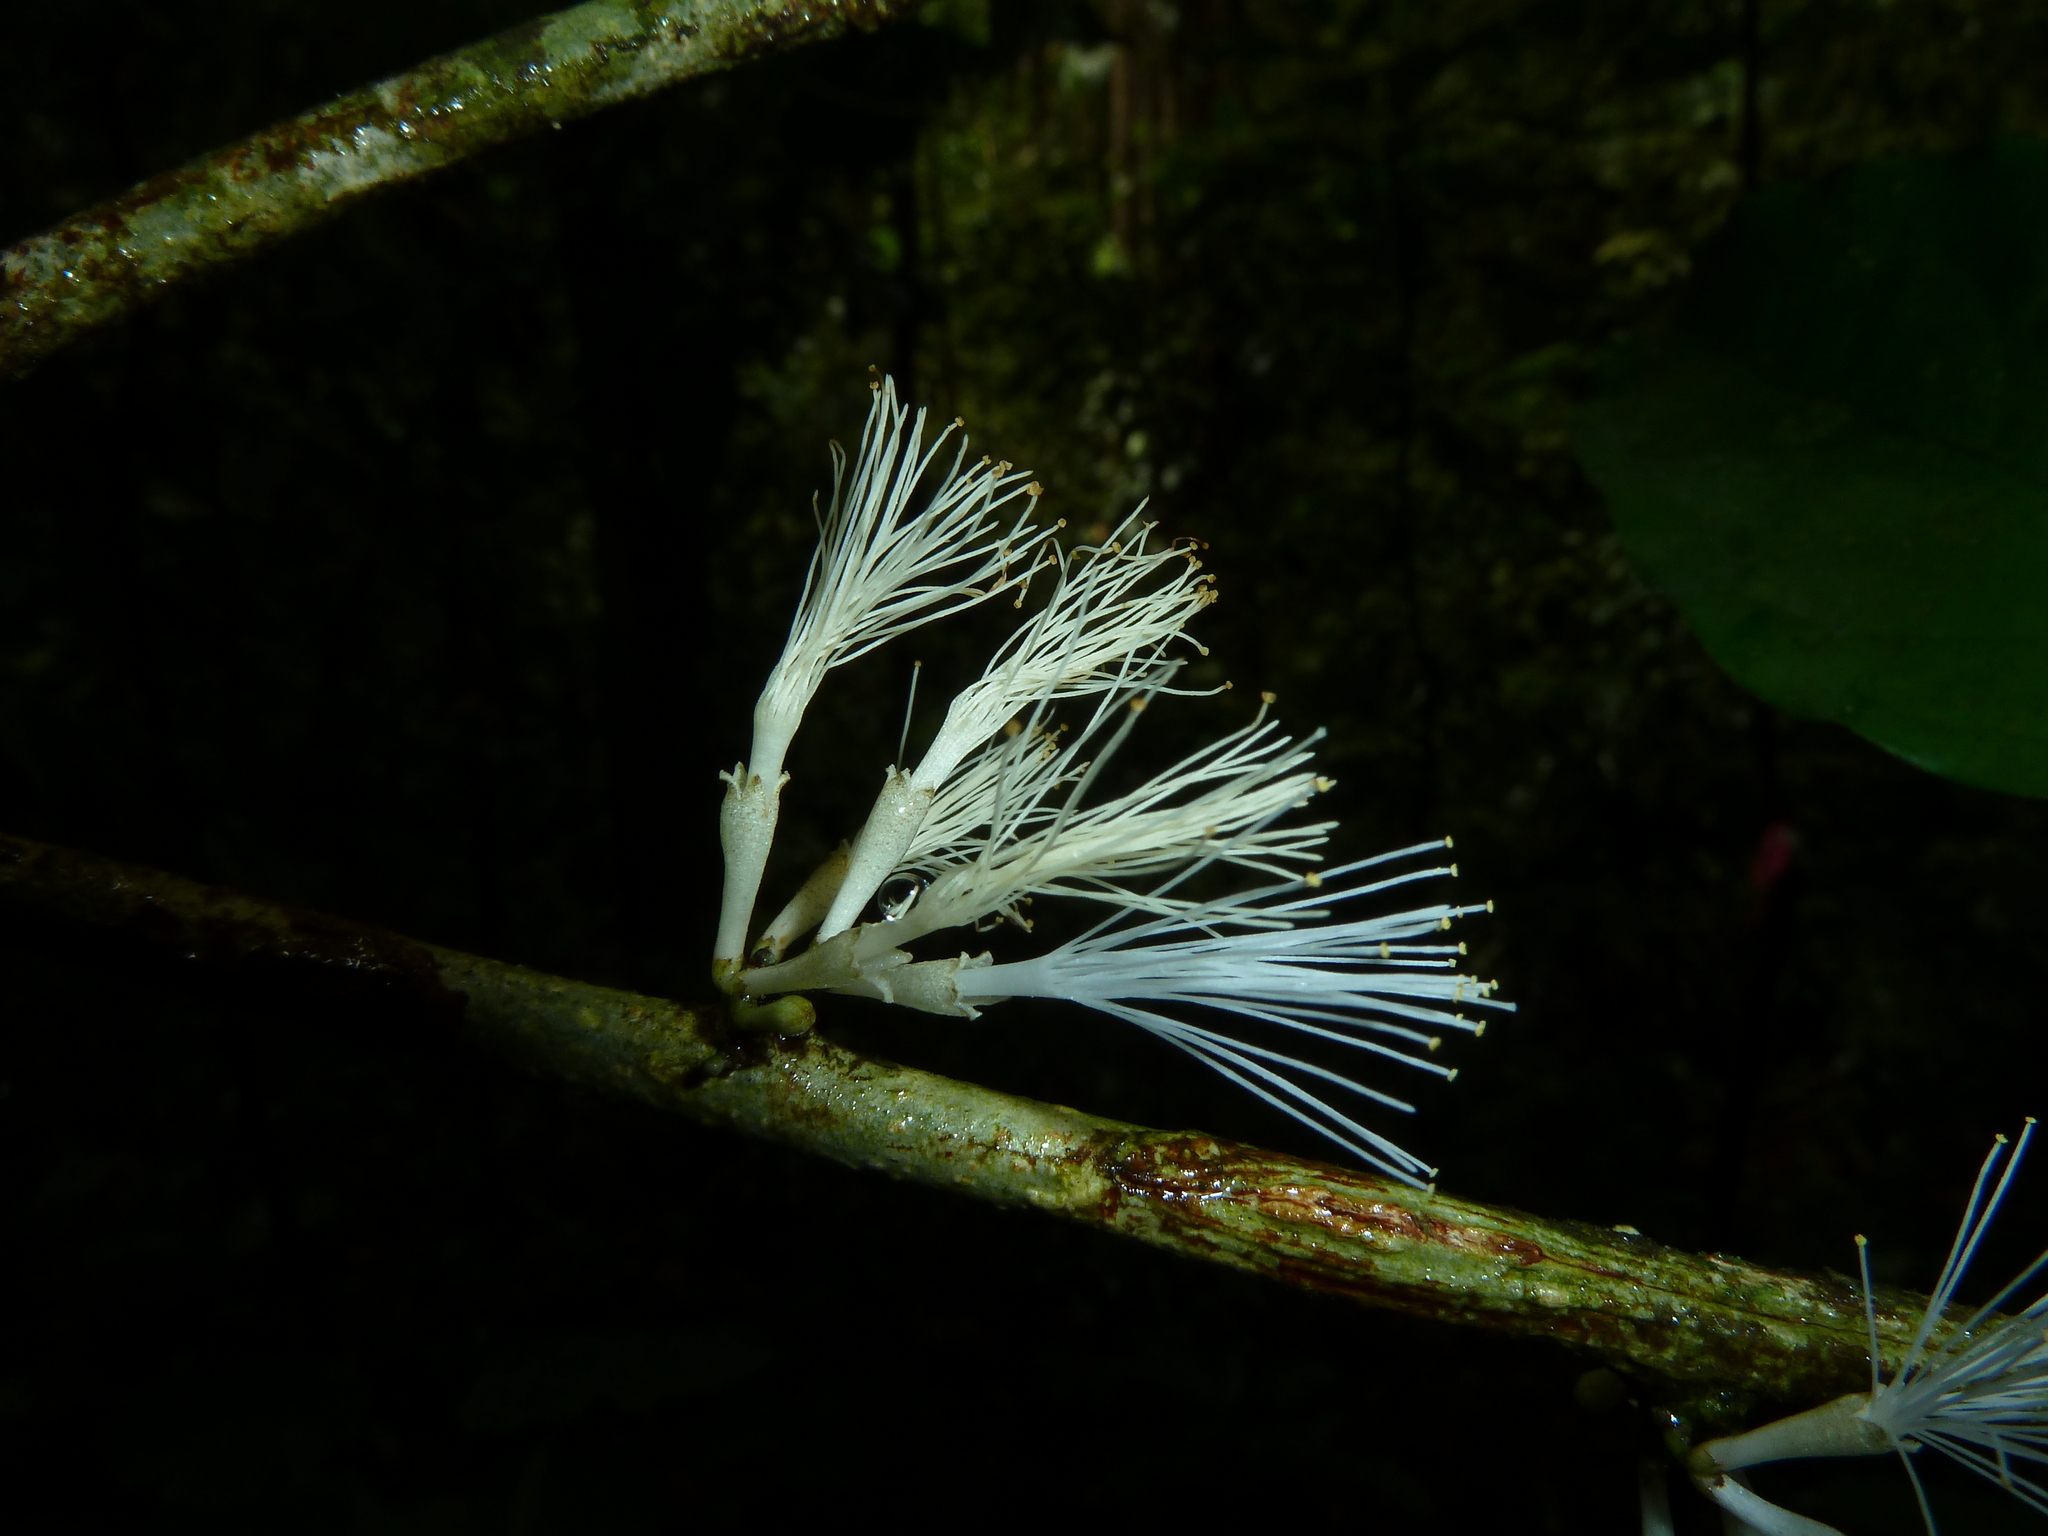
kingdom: Plantae
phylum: Tracheophyta
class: Magnoliopsida
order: Fabales
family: Fabaceae
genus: Zygia
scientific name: Zygia unifoliolata
